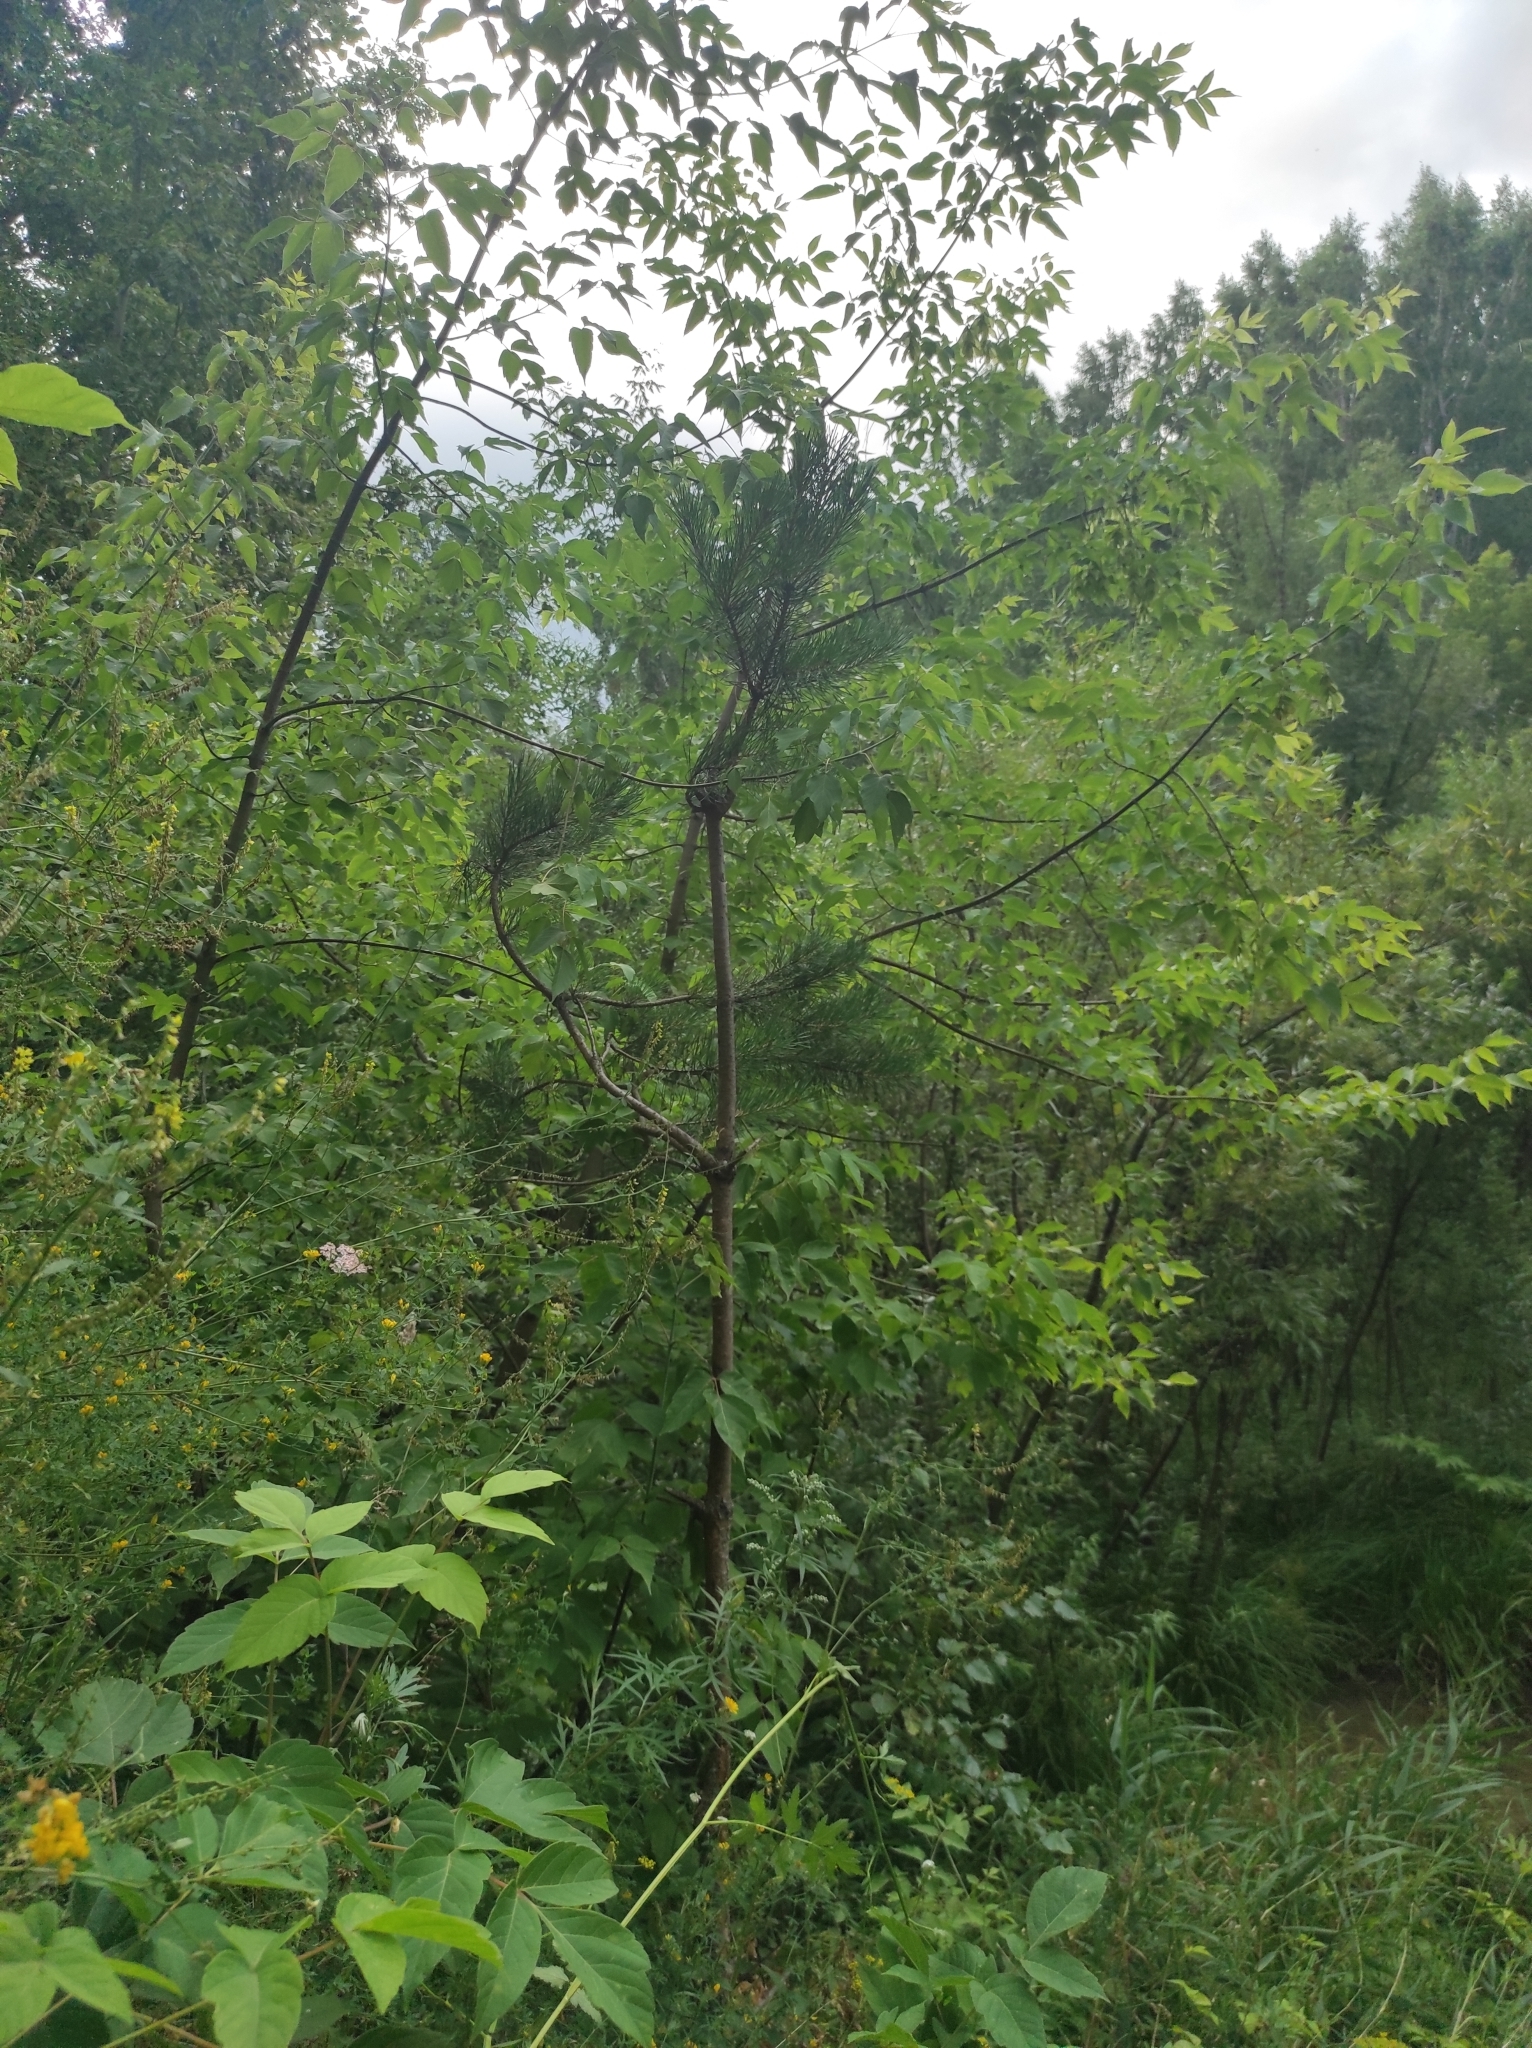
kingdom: Plantae
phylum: Tracheophyta
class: Pinopsida
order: Pinales
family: Pinaceae
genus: Pinus
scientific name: Pinus sylvestris
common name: Scots pine
